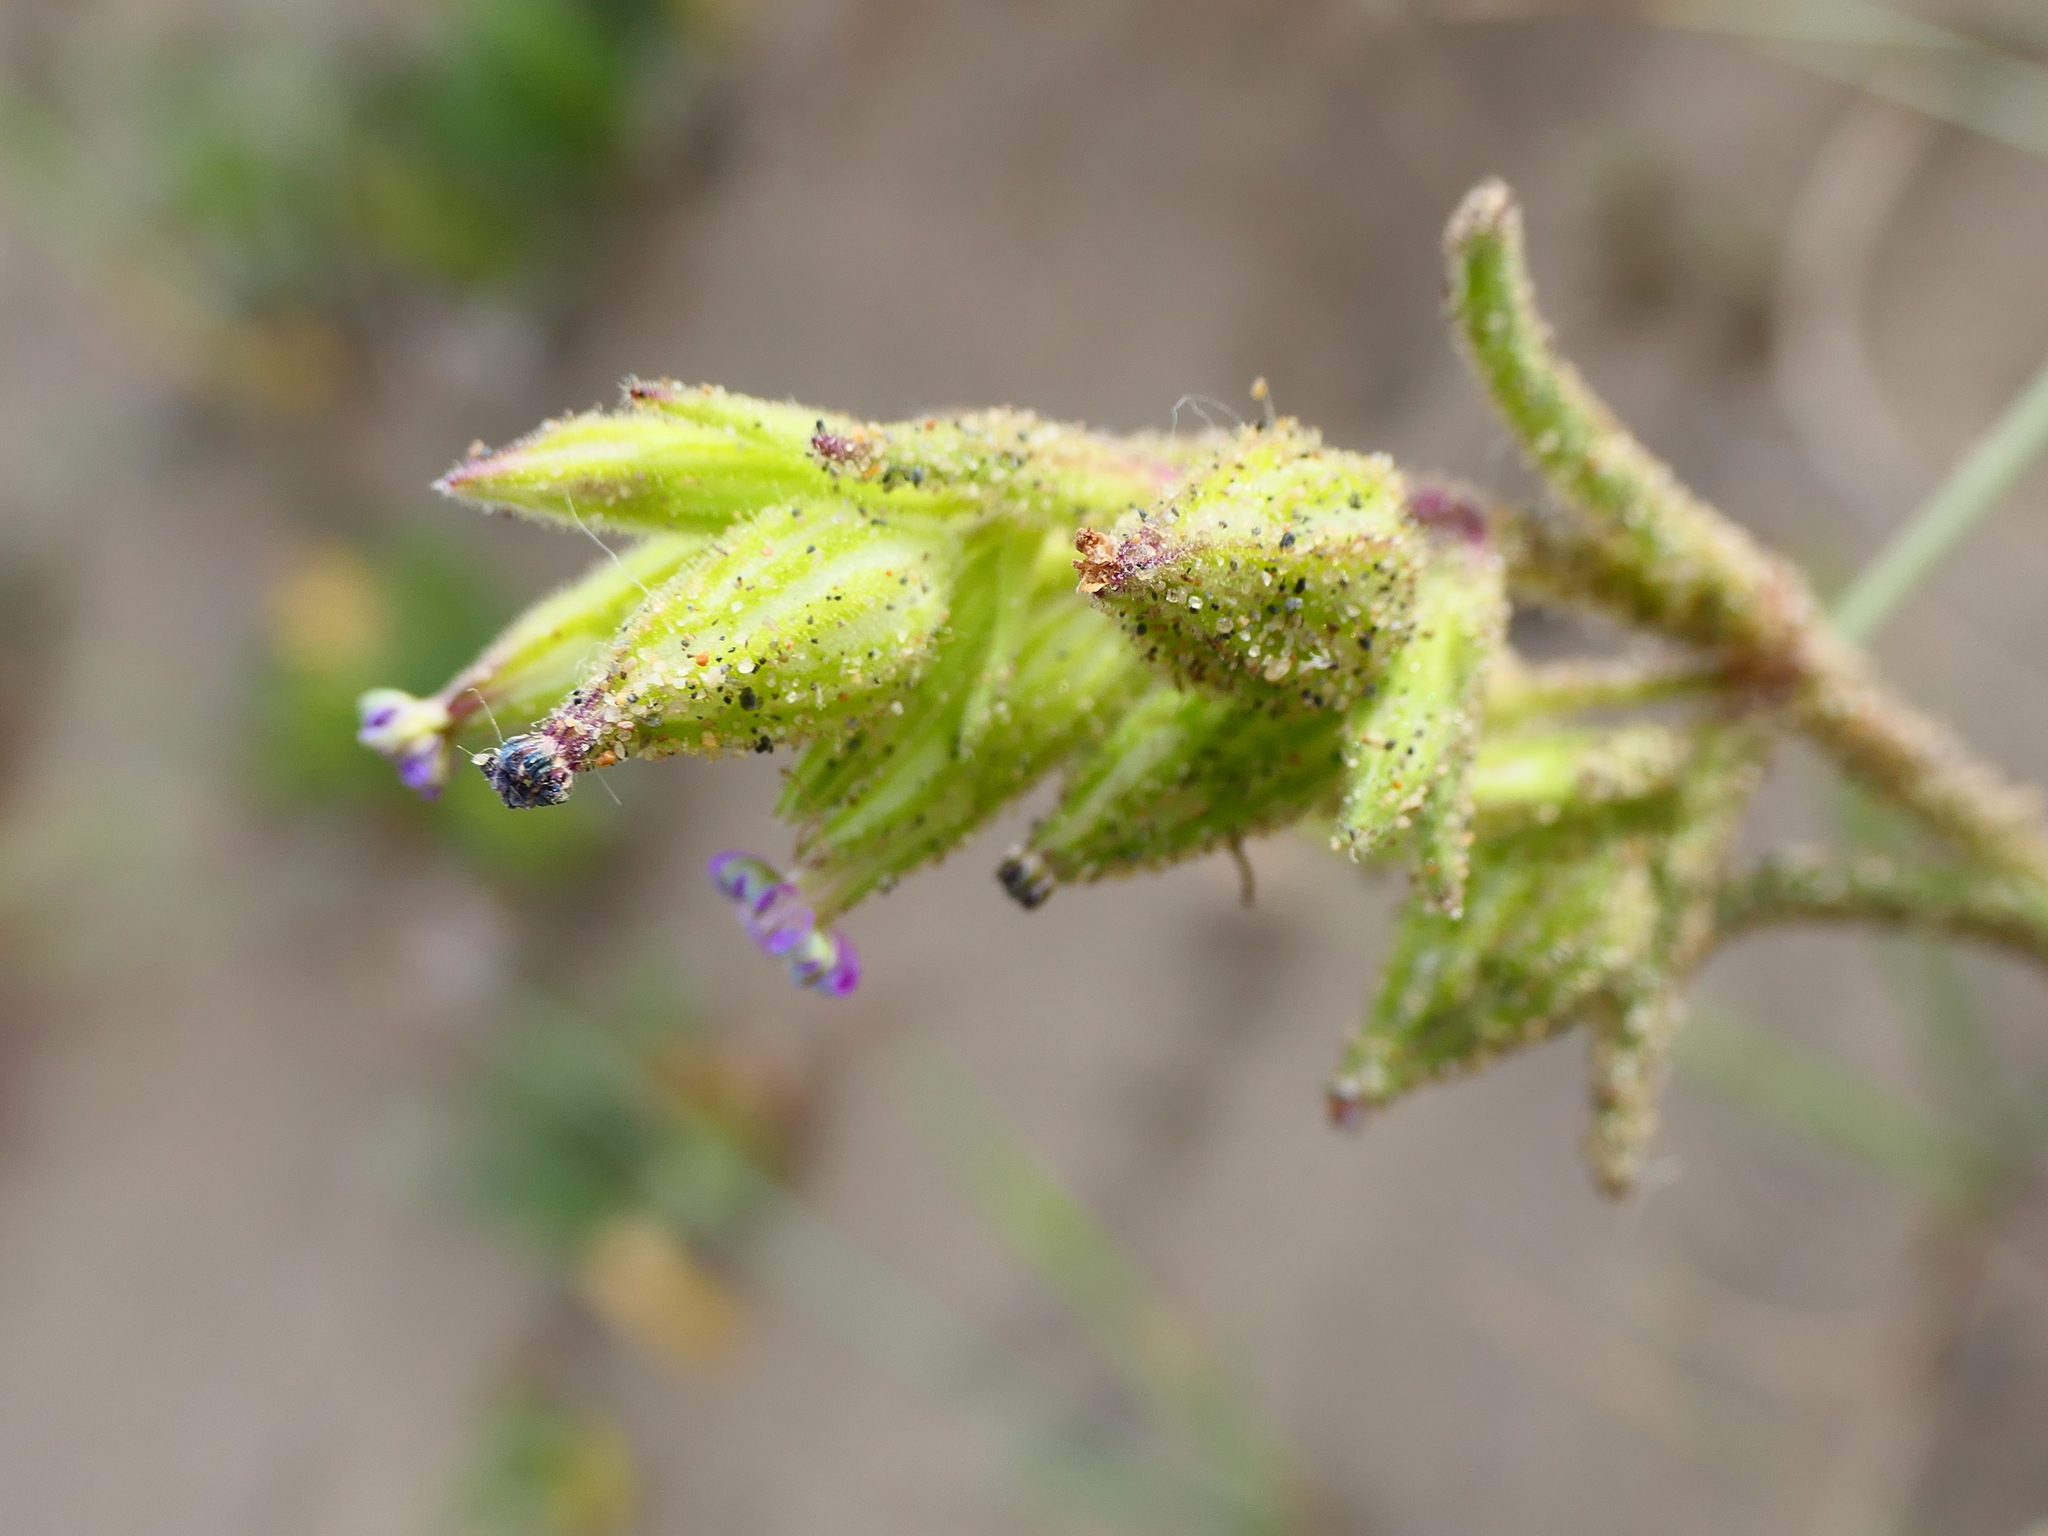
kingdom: Plantae
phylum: Tracheophyta
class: Magnoliopsida
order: Caryophyllales
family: Caryophyllaceae
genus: Silene
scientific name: Silene ramosissima
